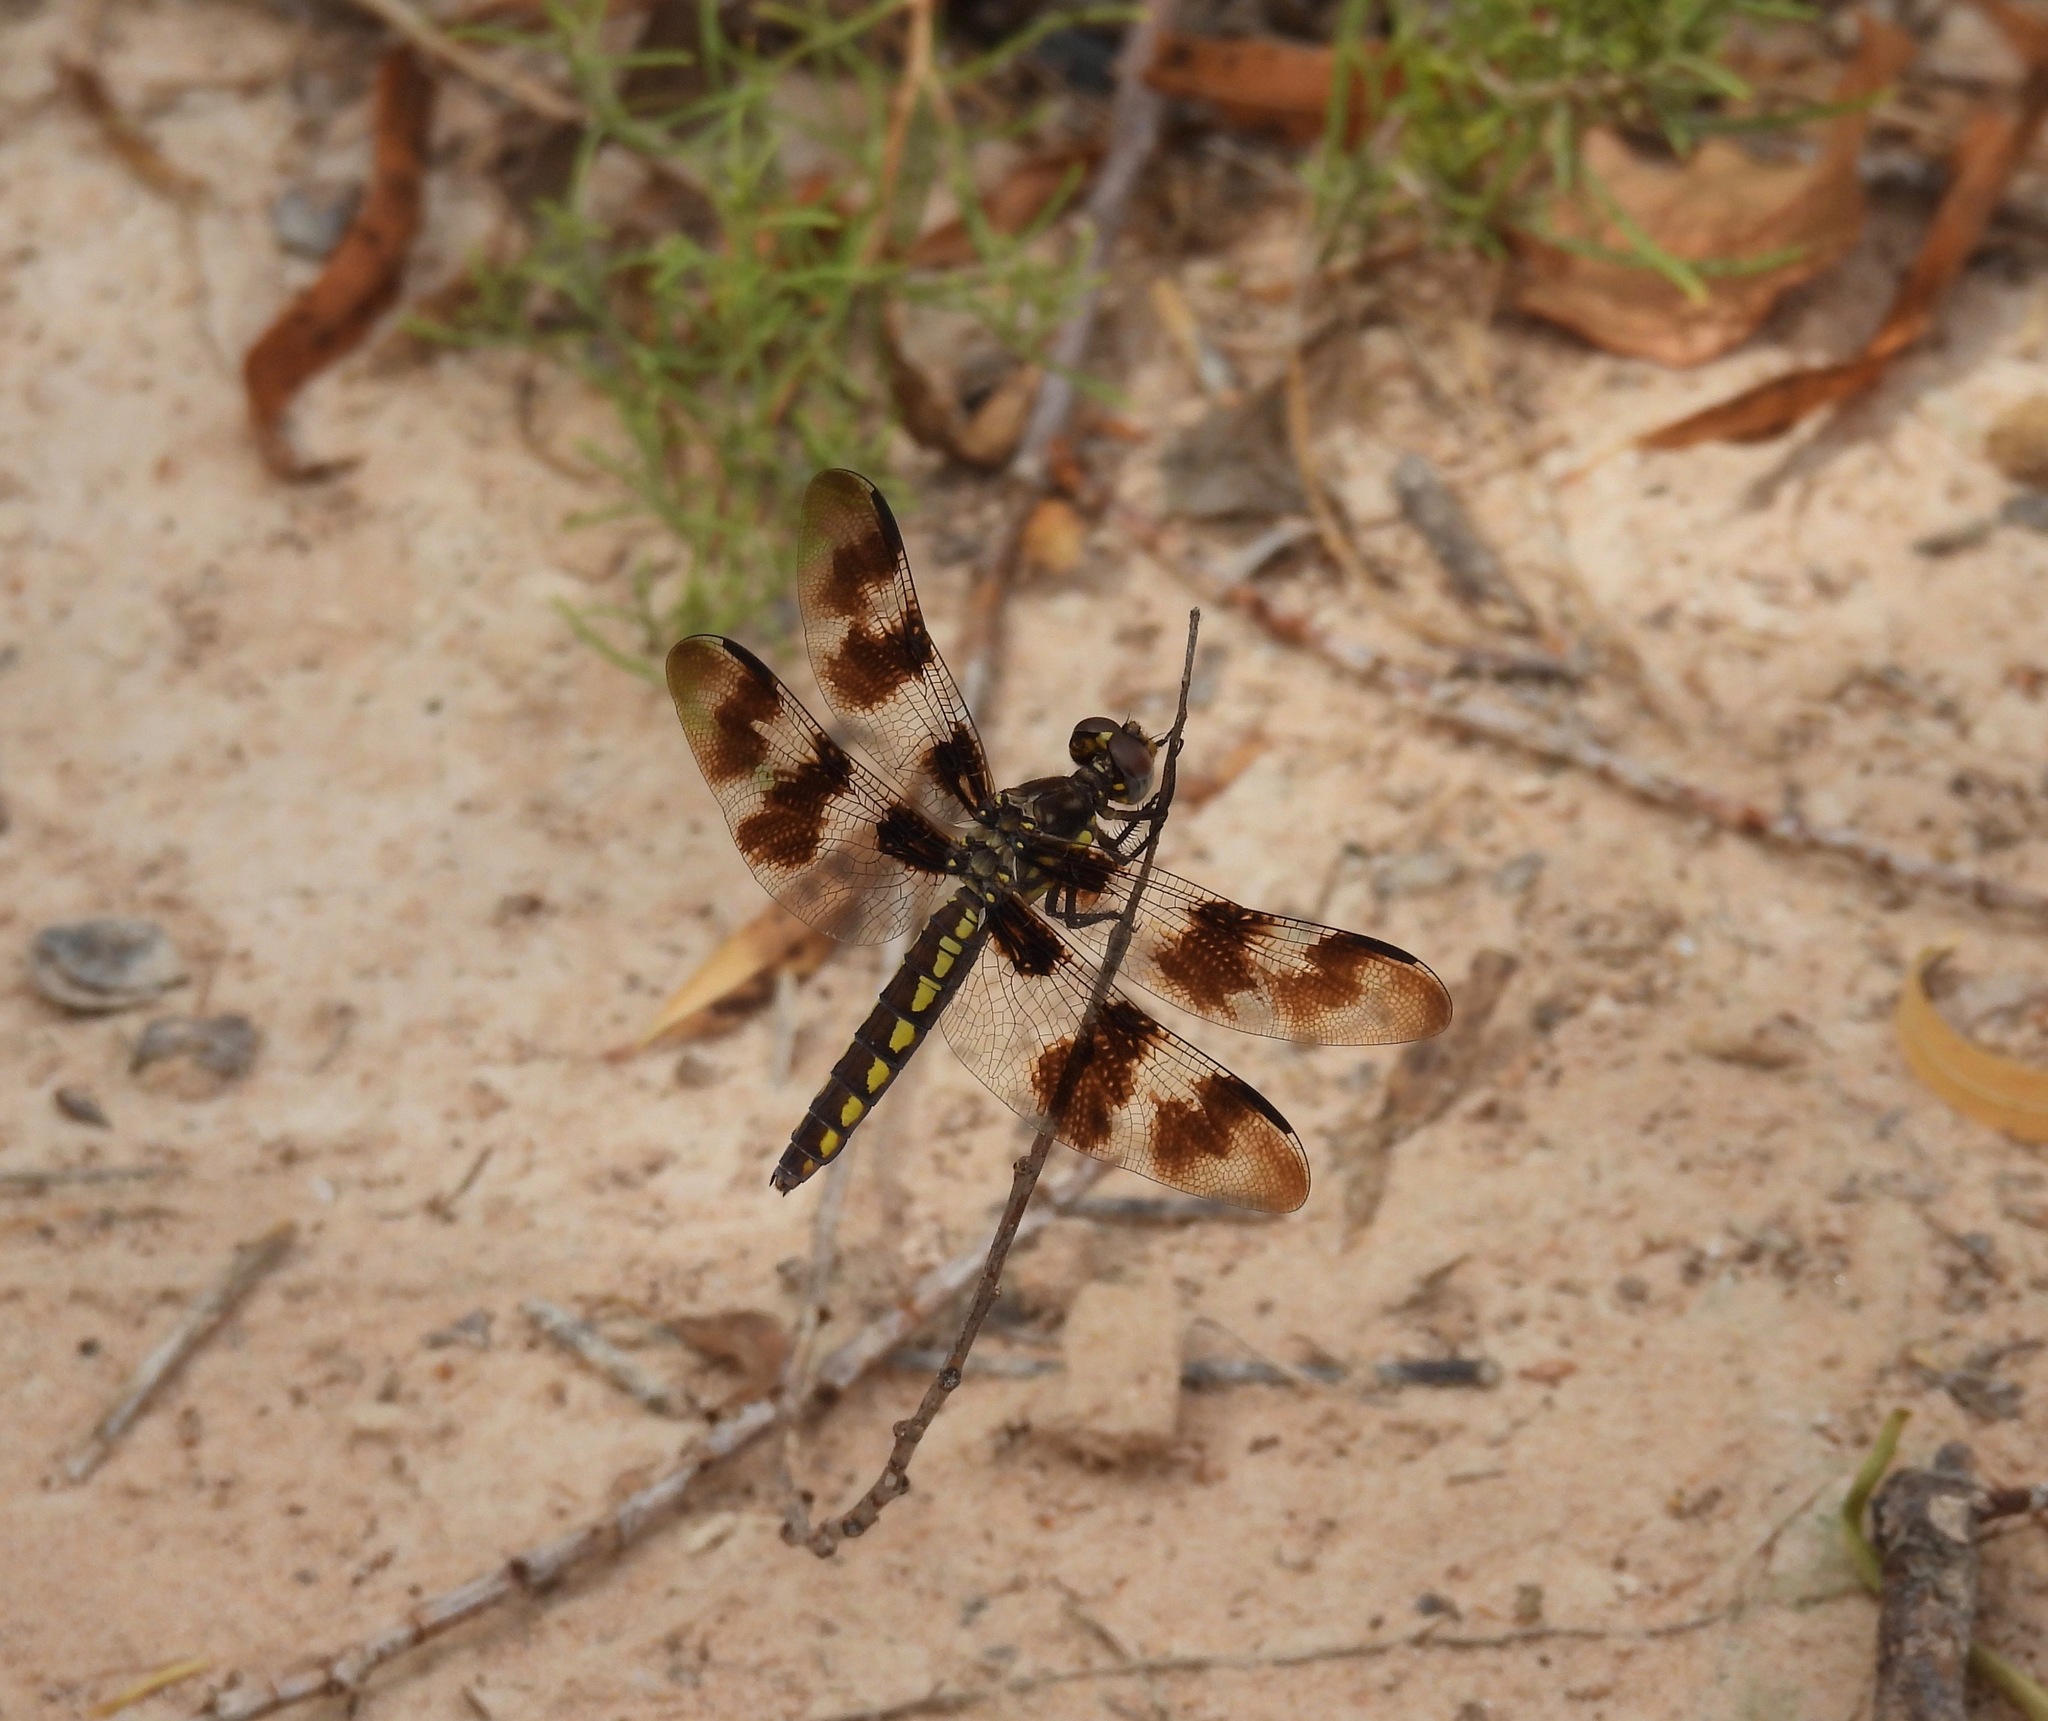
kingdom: Animalia
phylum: Arthropoda
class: Insecta
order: Odonata
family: Libellulidae
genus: Plathemis
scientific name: Plathemis subornata
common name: Desert whitetail
